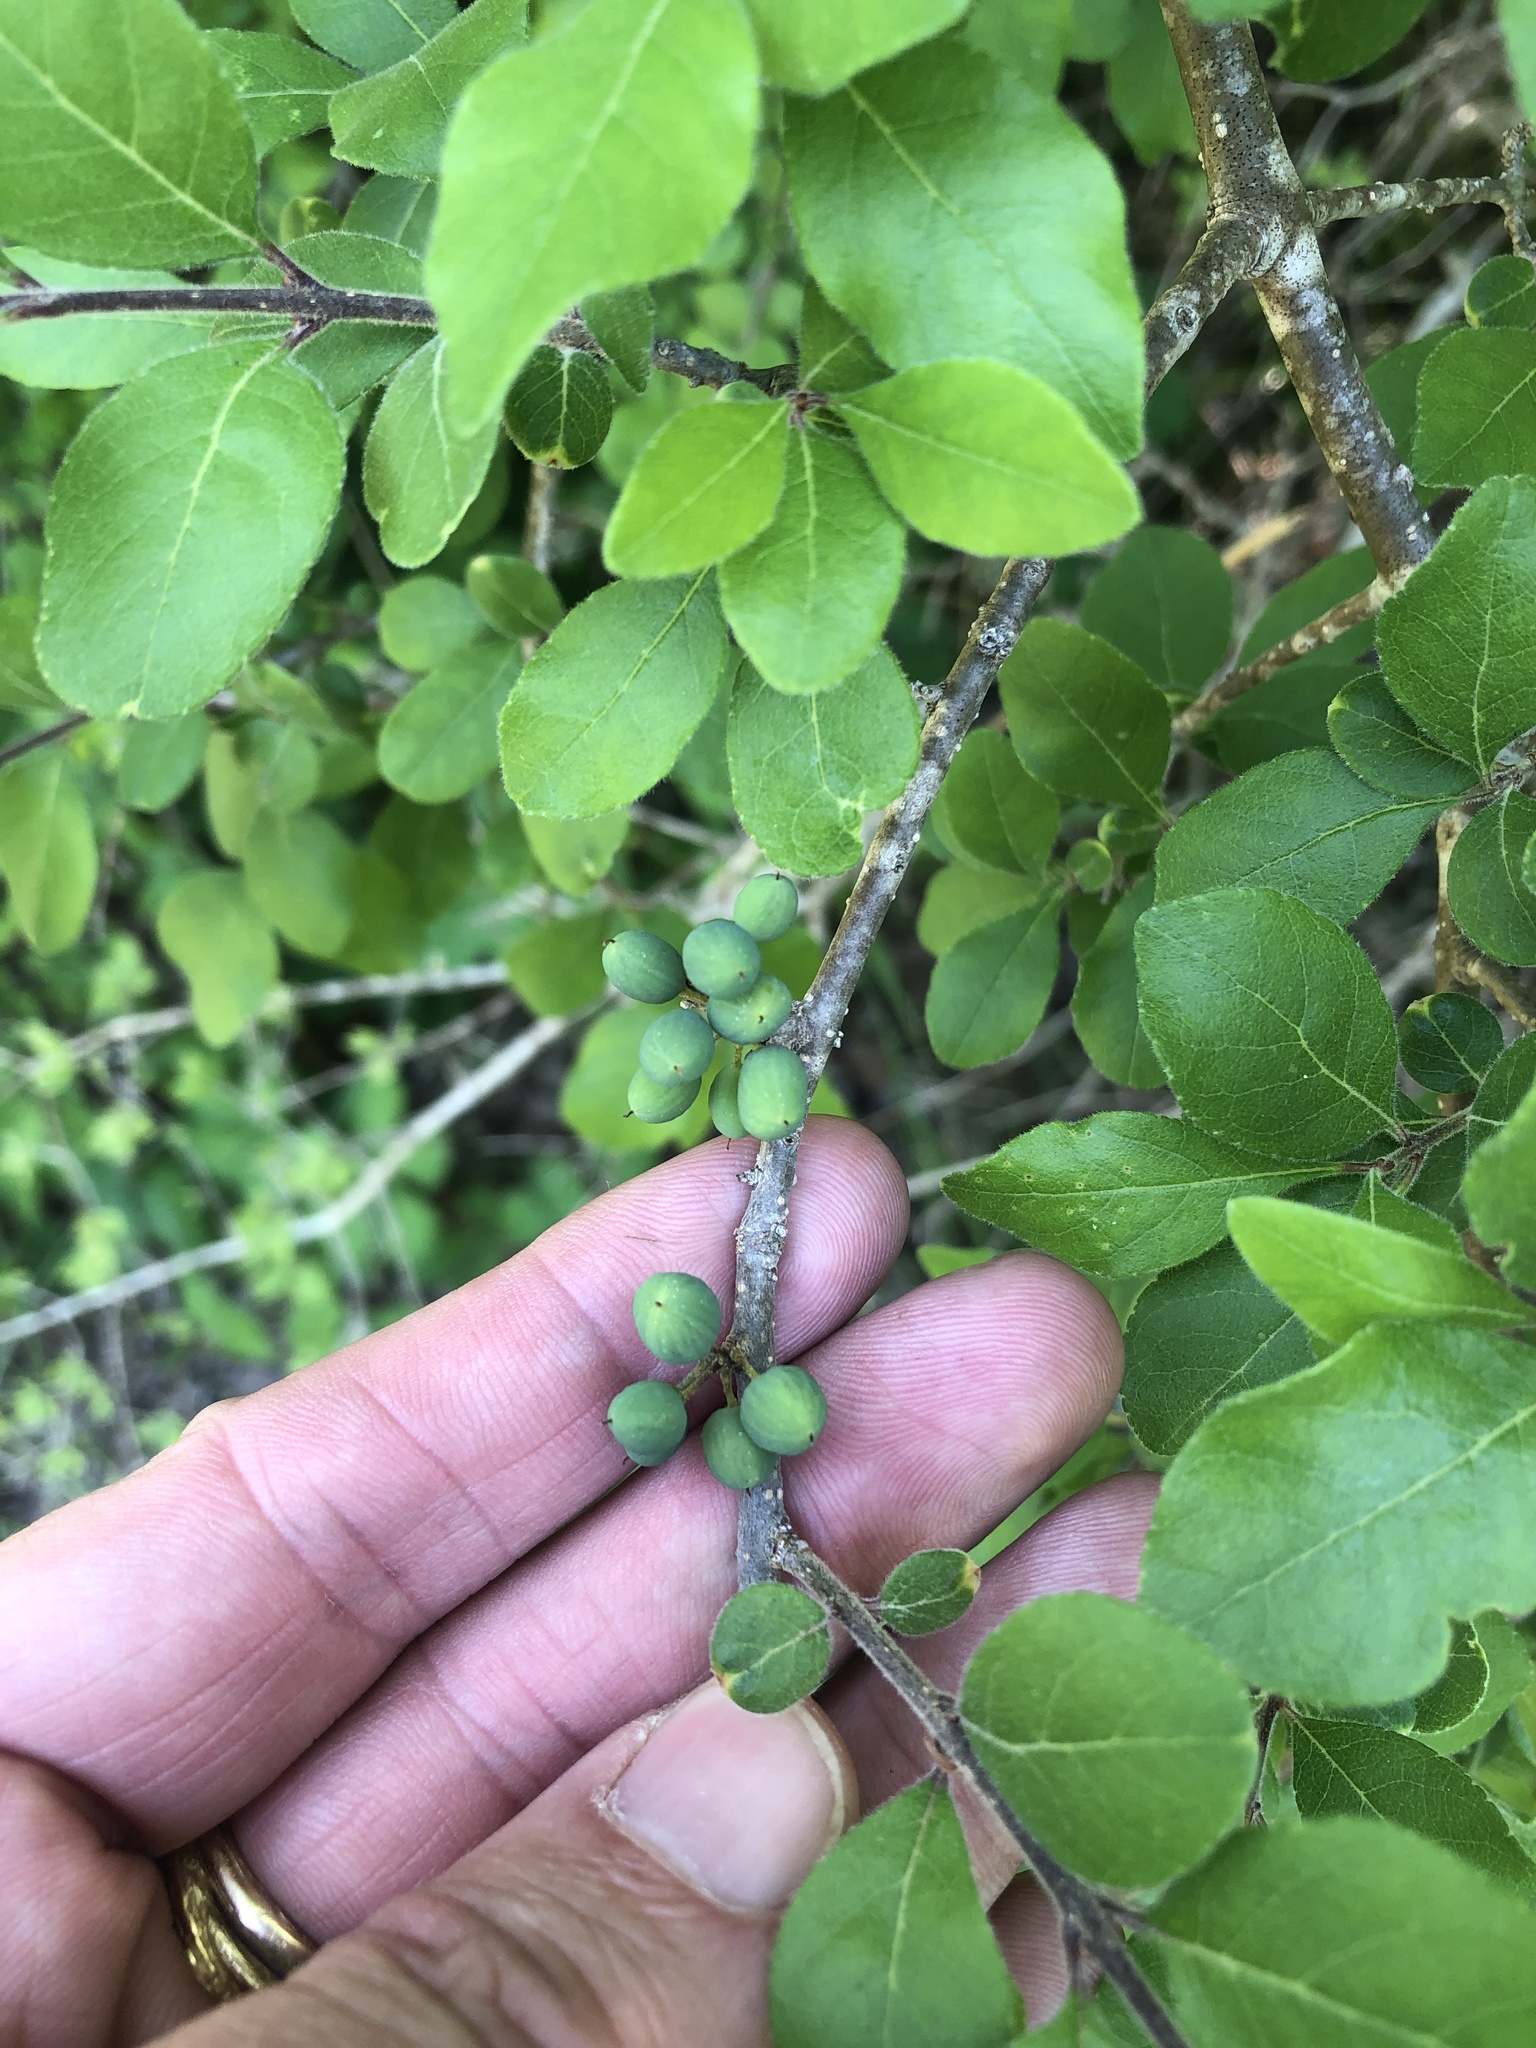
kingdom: Plantae
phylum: Tracheophyta
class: Magnoliopsida
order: Lamiales
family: Oleaceae
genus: Forestiera
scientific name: Forestiera pubescens
